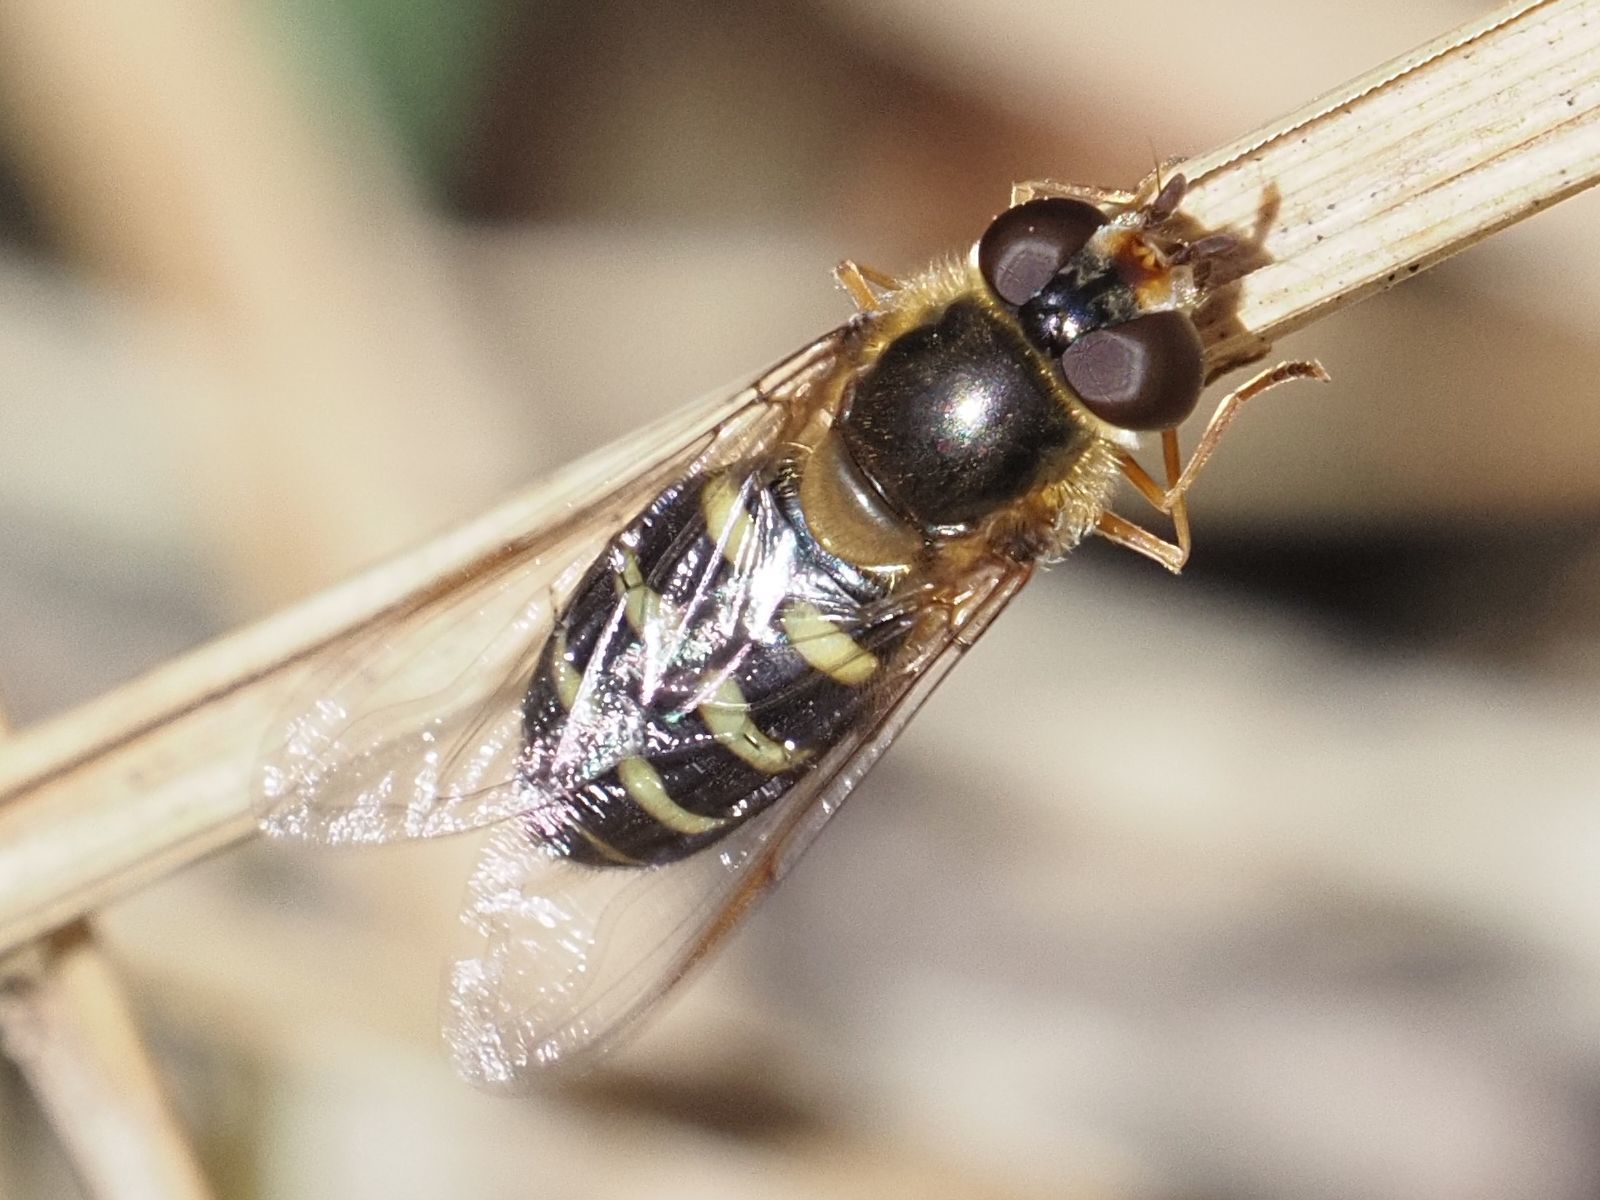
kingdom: Animalia
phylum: Arthropoda
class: Insecta
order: Diptera
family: Syrphidae
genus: Lapposyrphus
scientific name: Lapposyrphus lapponicus
